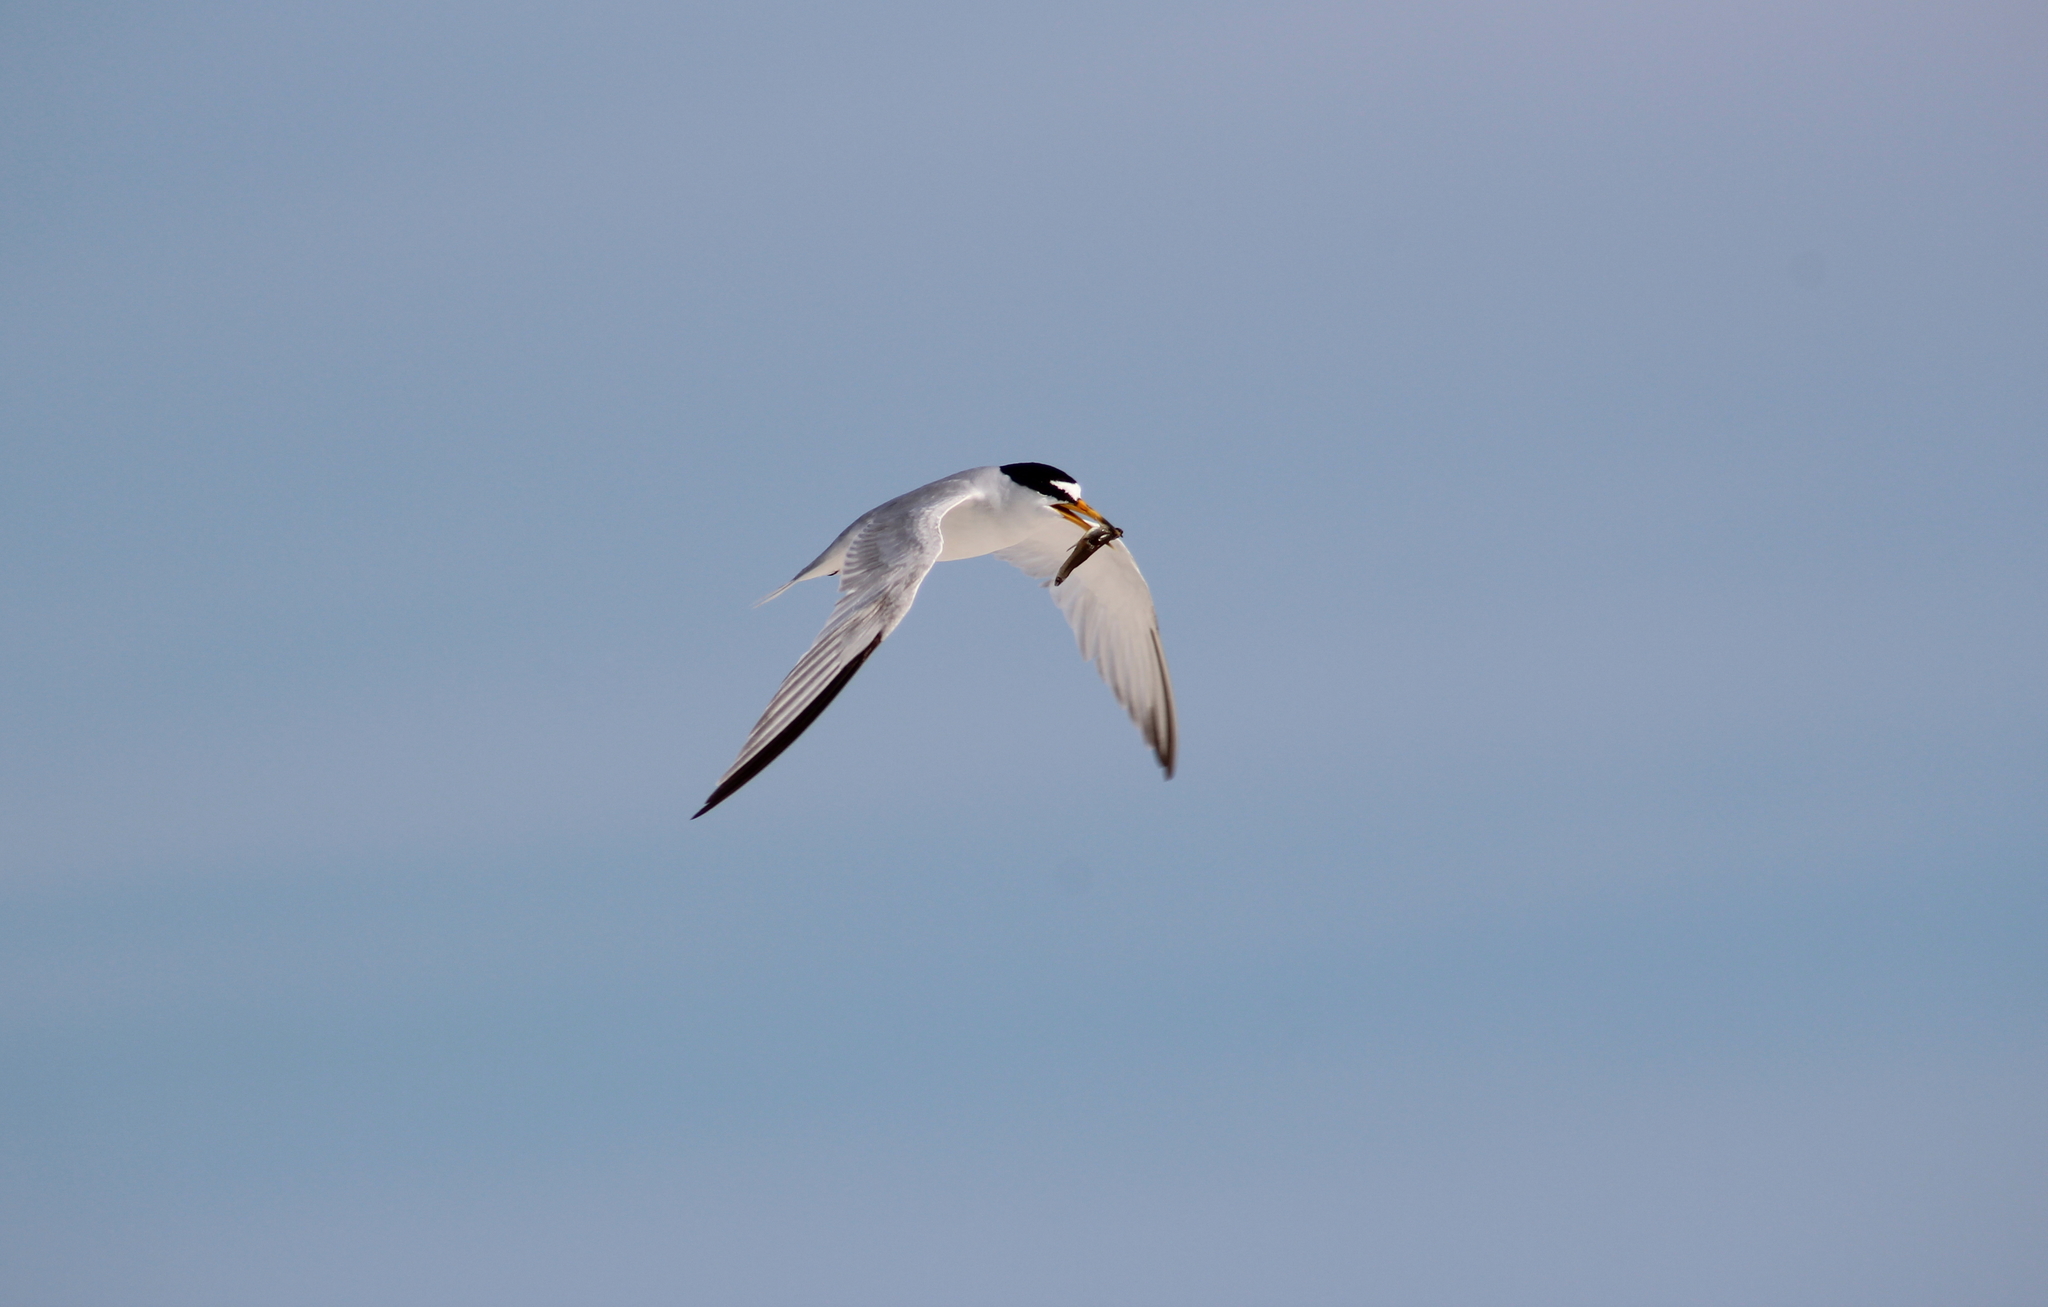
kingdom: Animalia
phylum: Chordata
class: Aves
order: Charadriiformes
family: Laridae
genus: Sternula
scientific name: Sternula antillarum
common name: Least tern
